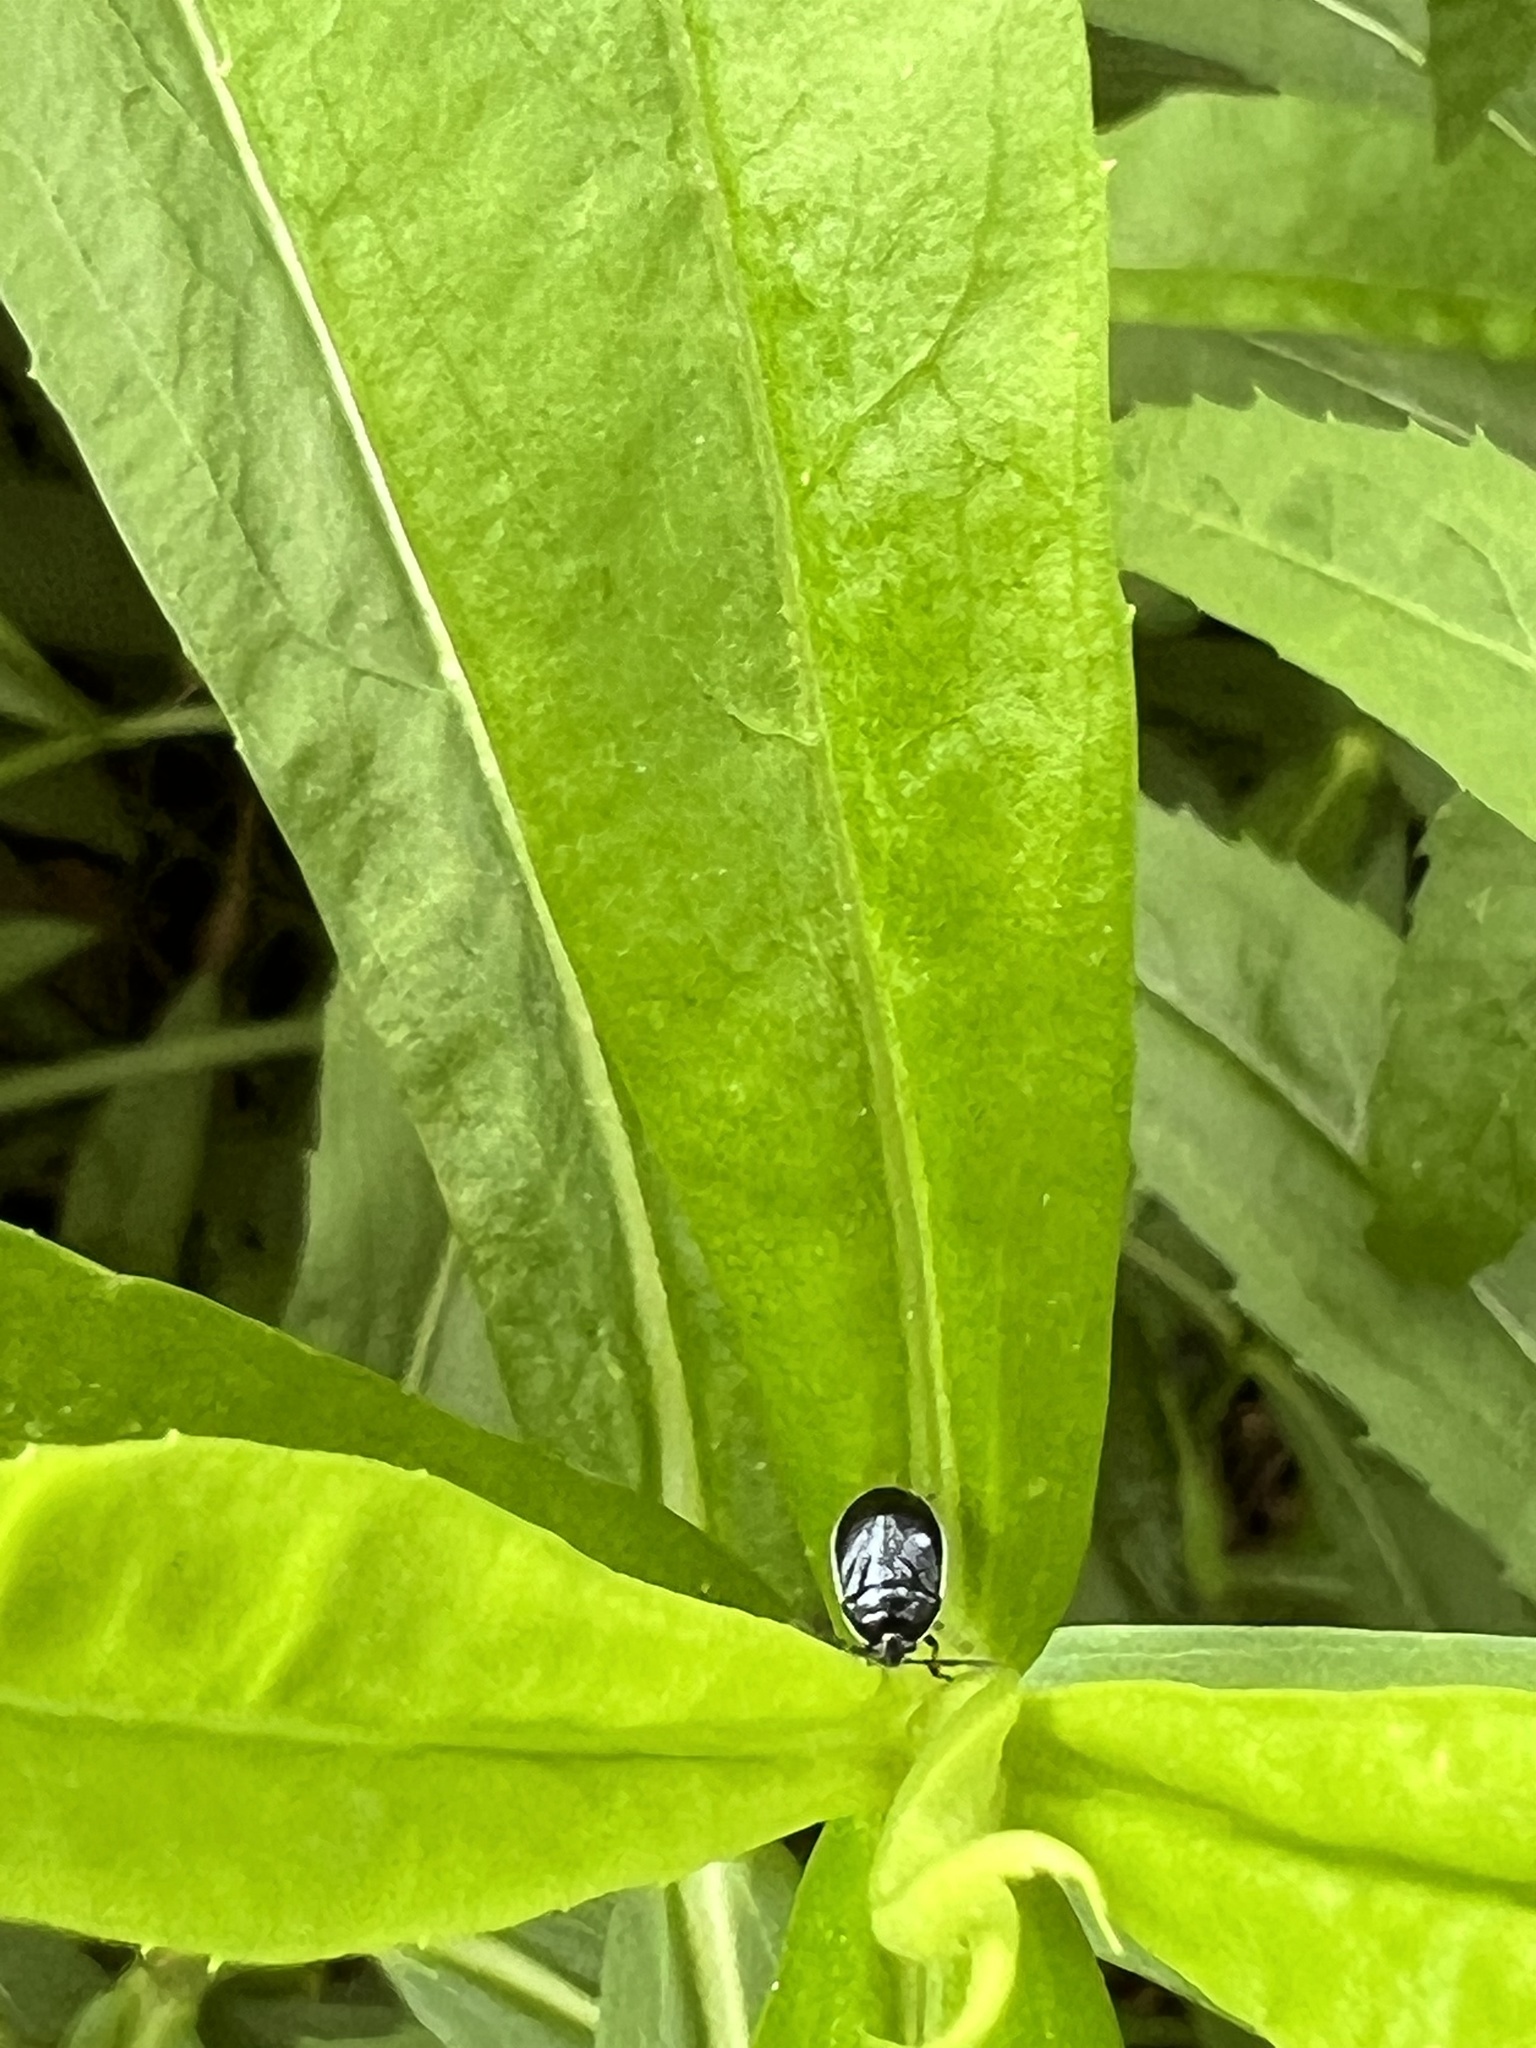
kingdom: Animalia
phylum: Arthropoda
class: Insecta
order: Hemiptera
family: Cydnidae
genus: Sehirus
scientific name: Sehirus cinctus
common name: White-margined burrower bug
